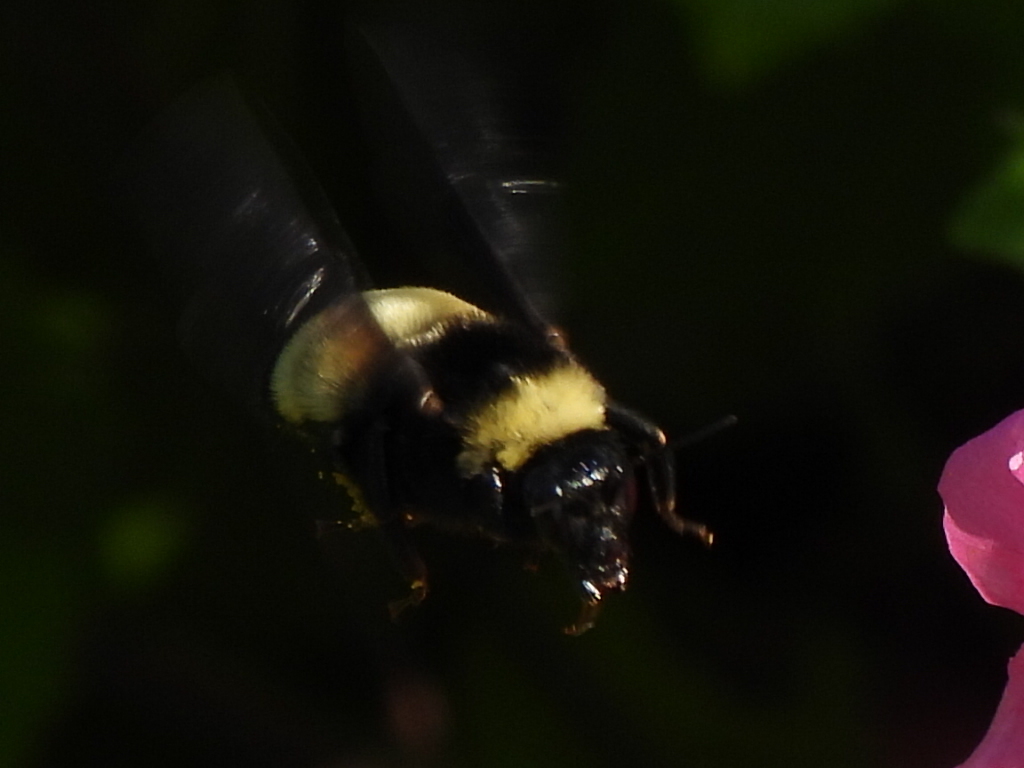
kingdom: Animalia
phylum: Arthropoda
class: Insecta
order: Hymenoptera
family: Apidae
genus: Bombus
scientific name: Bombus pensylvanicus
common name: Bumble bee
